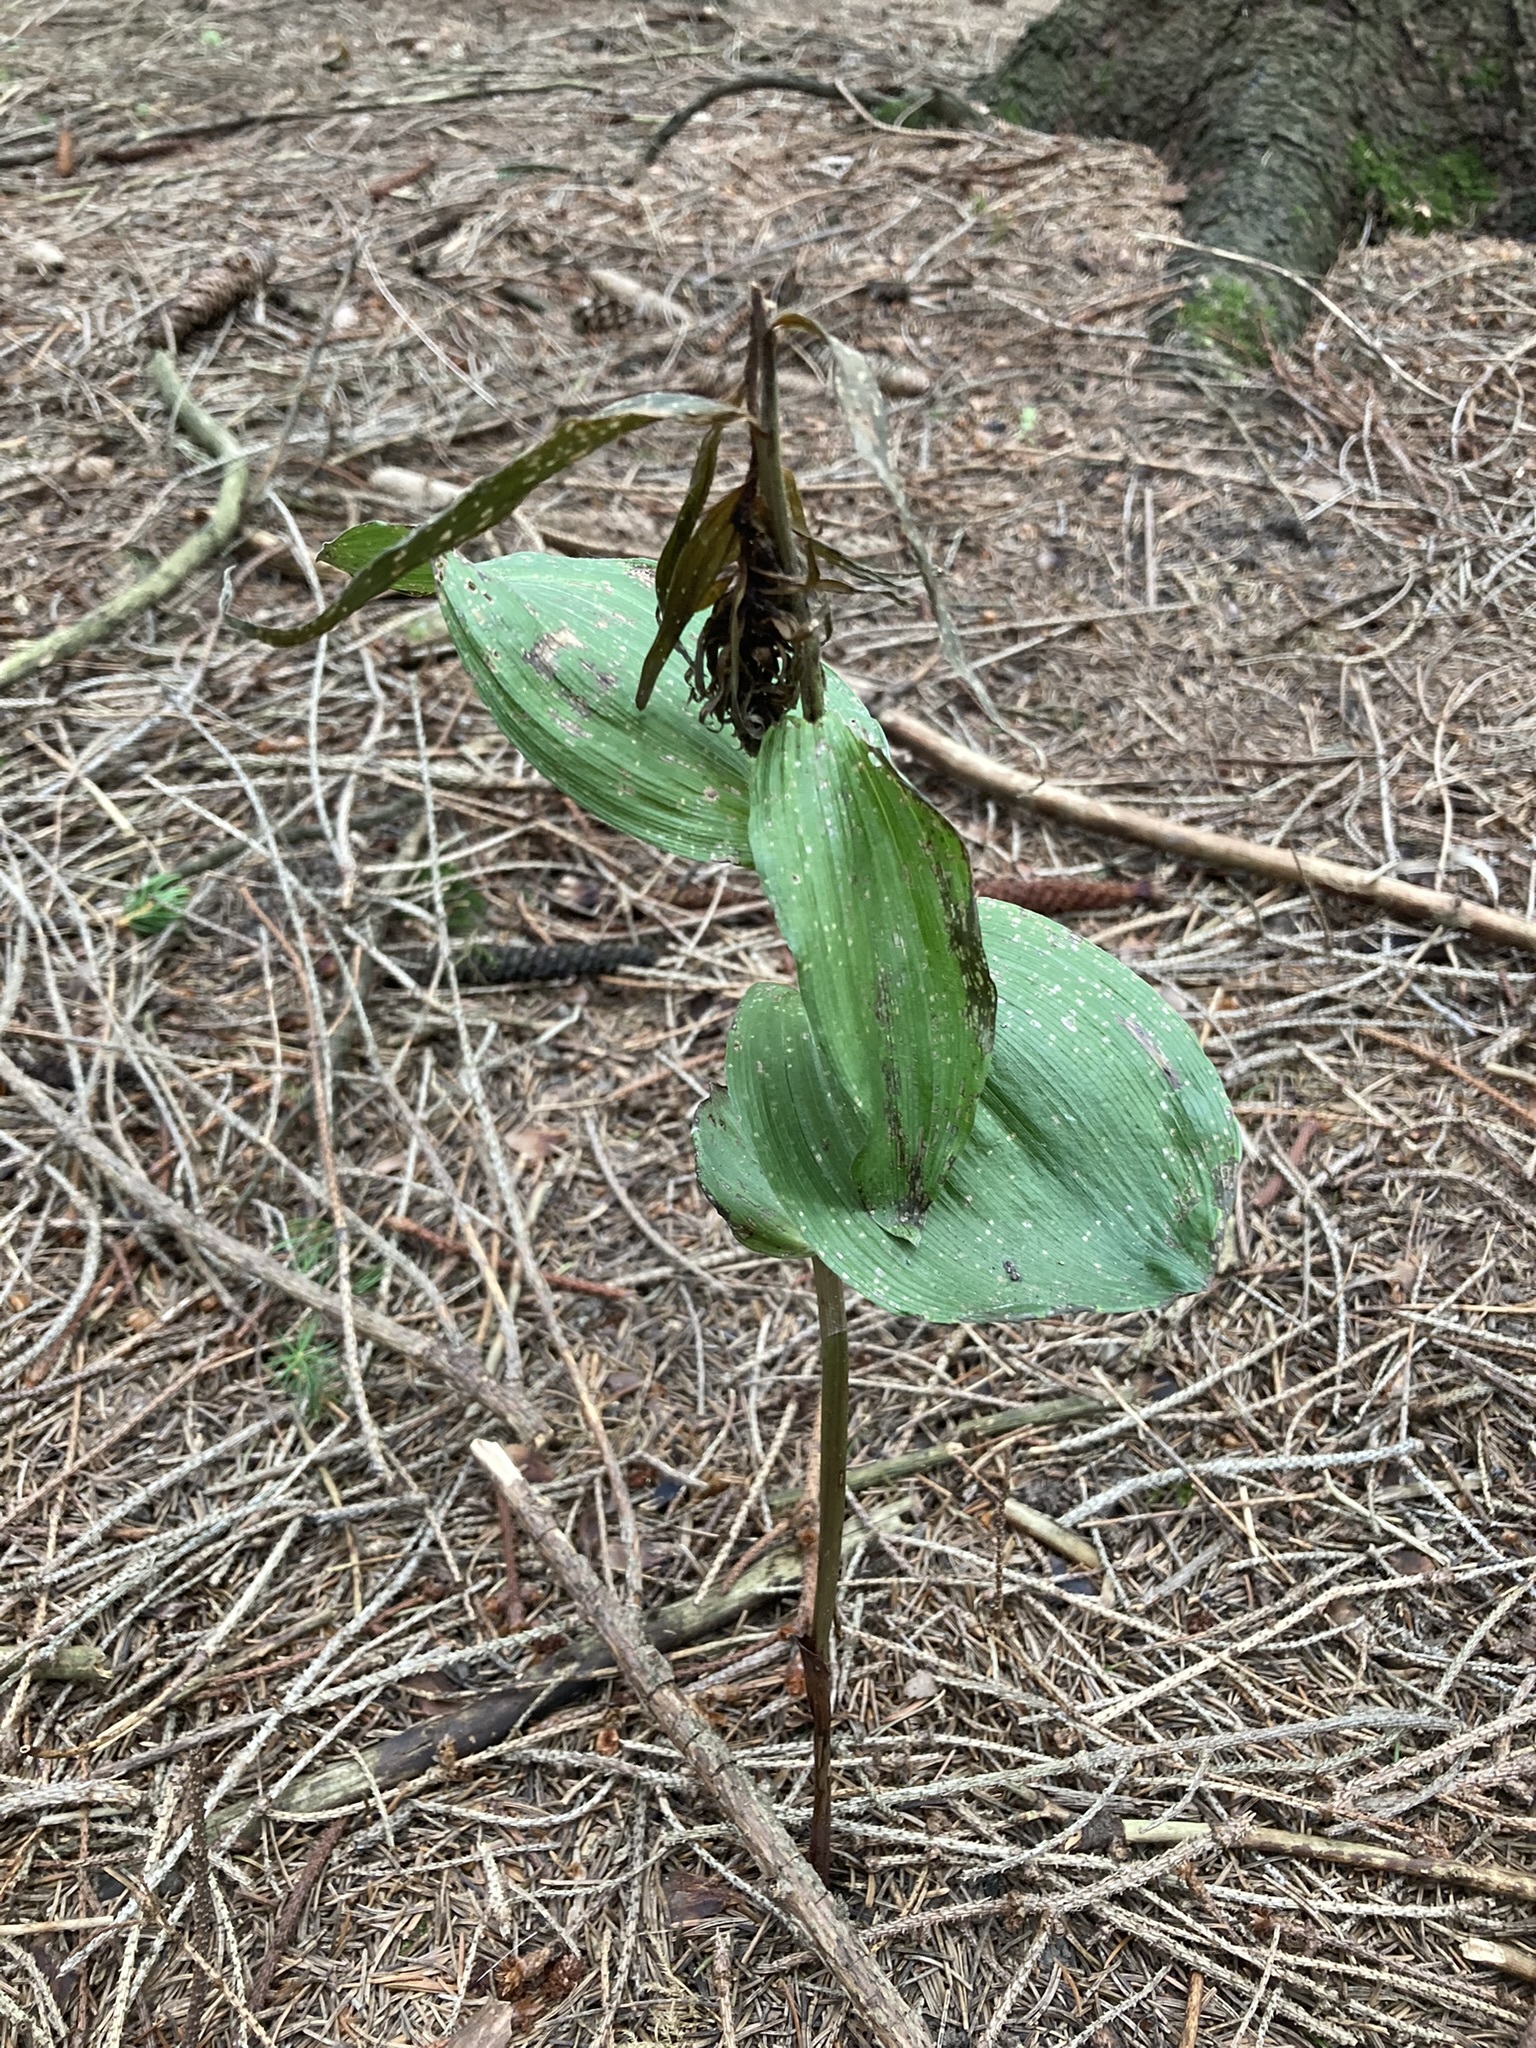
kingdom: Plantae
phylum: Tracheophyta
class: Liliopsida
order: Asparagales
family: Orchidaceae
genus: Epipactis
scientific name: Epipactis helleborine
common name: Broad-leaved helleborine
